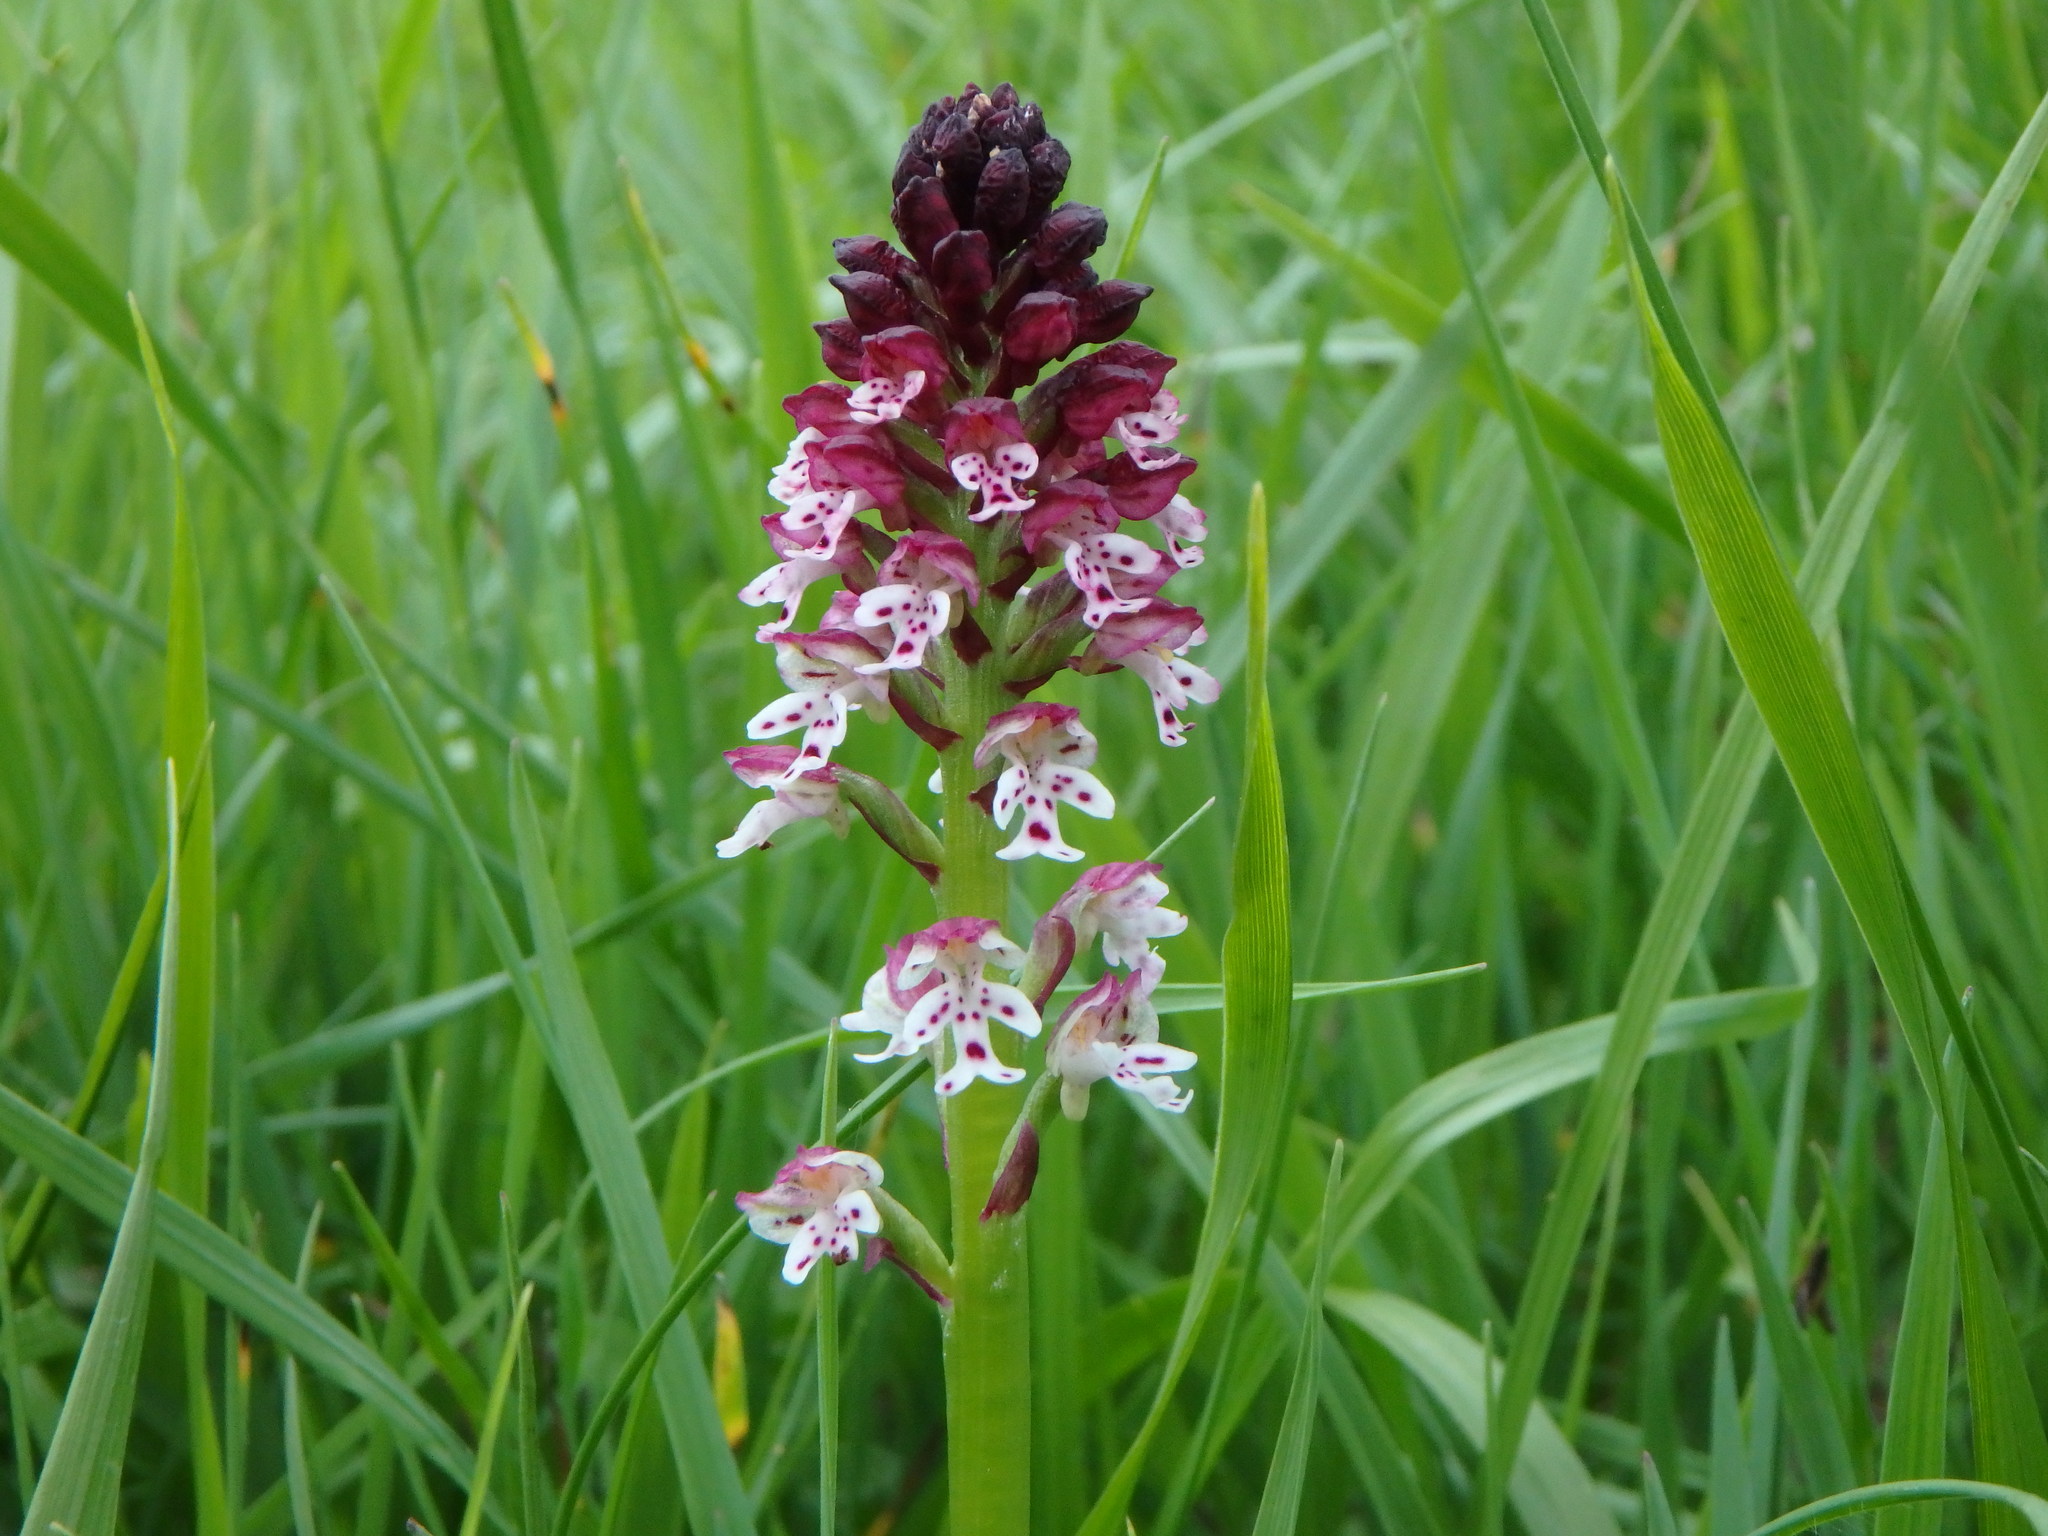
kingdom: Plantae
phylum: Tracheophyta
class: Liliopsida
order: Asparagales
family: Orchidaceae
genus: Neotinea
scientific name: Neotinea ustulata
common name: Burnt orchid
